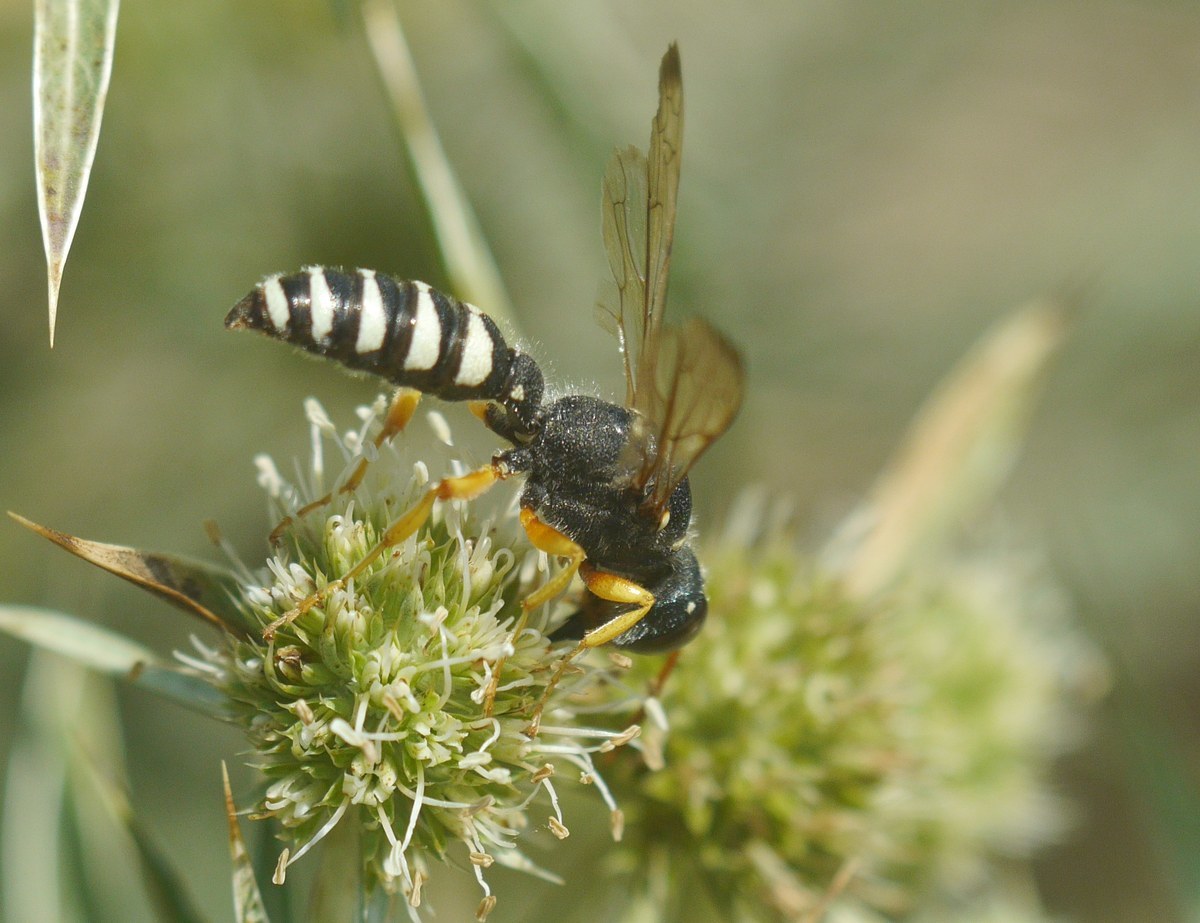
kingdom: Animalia
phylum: Arthropoda
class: Insecta
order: Hymenoptera
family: Crabronidae
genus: Cerceris
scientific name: Cerceris tuberculata
